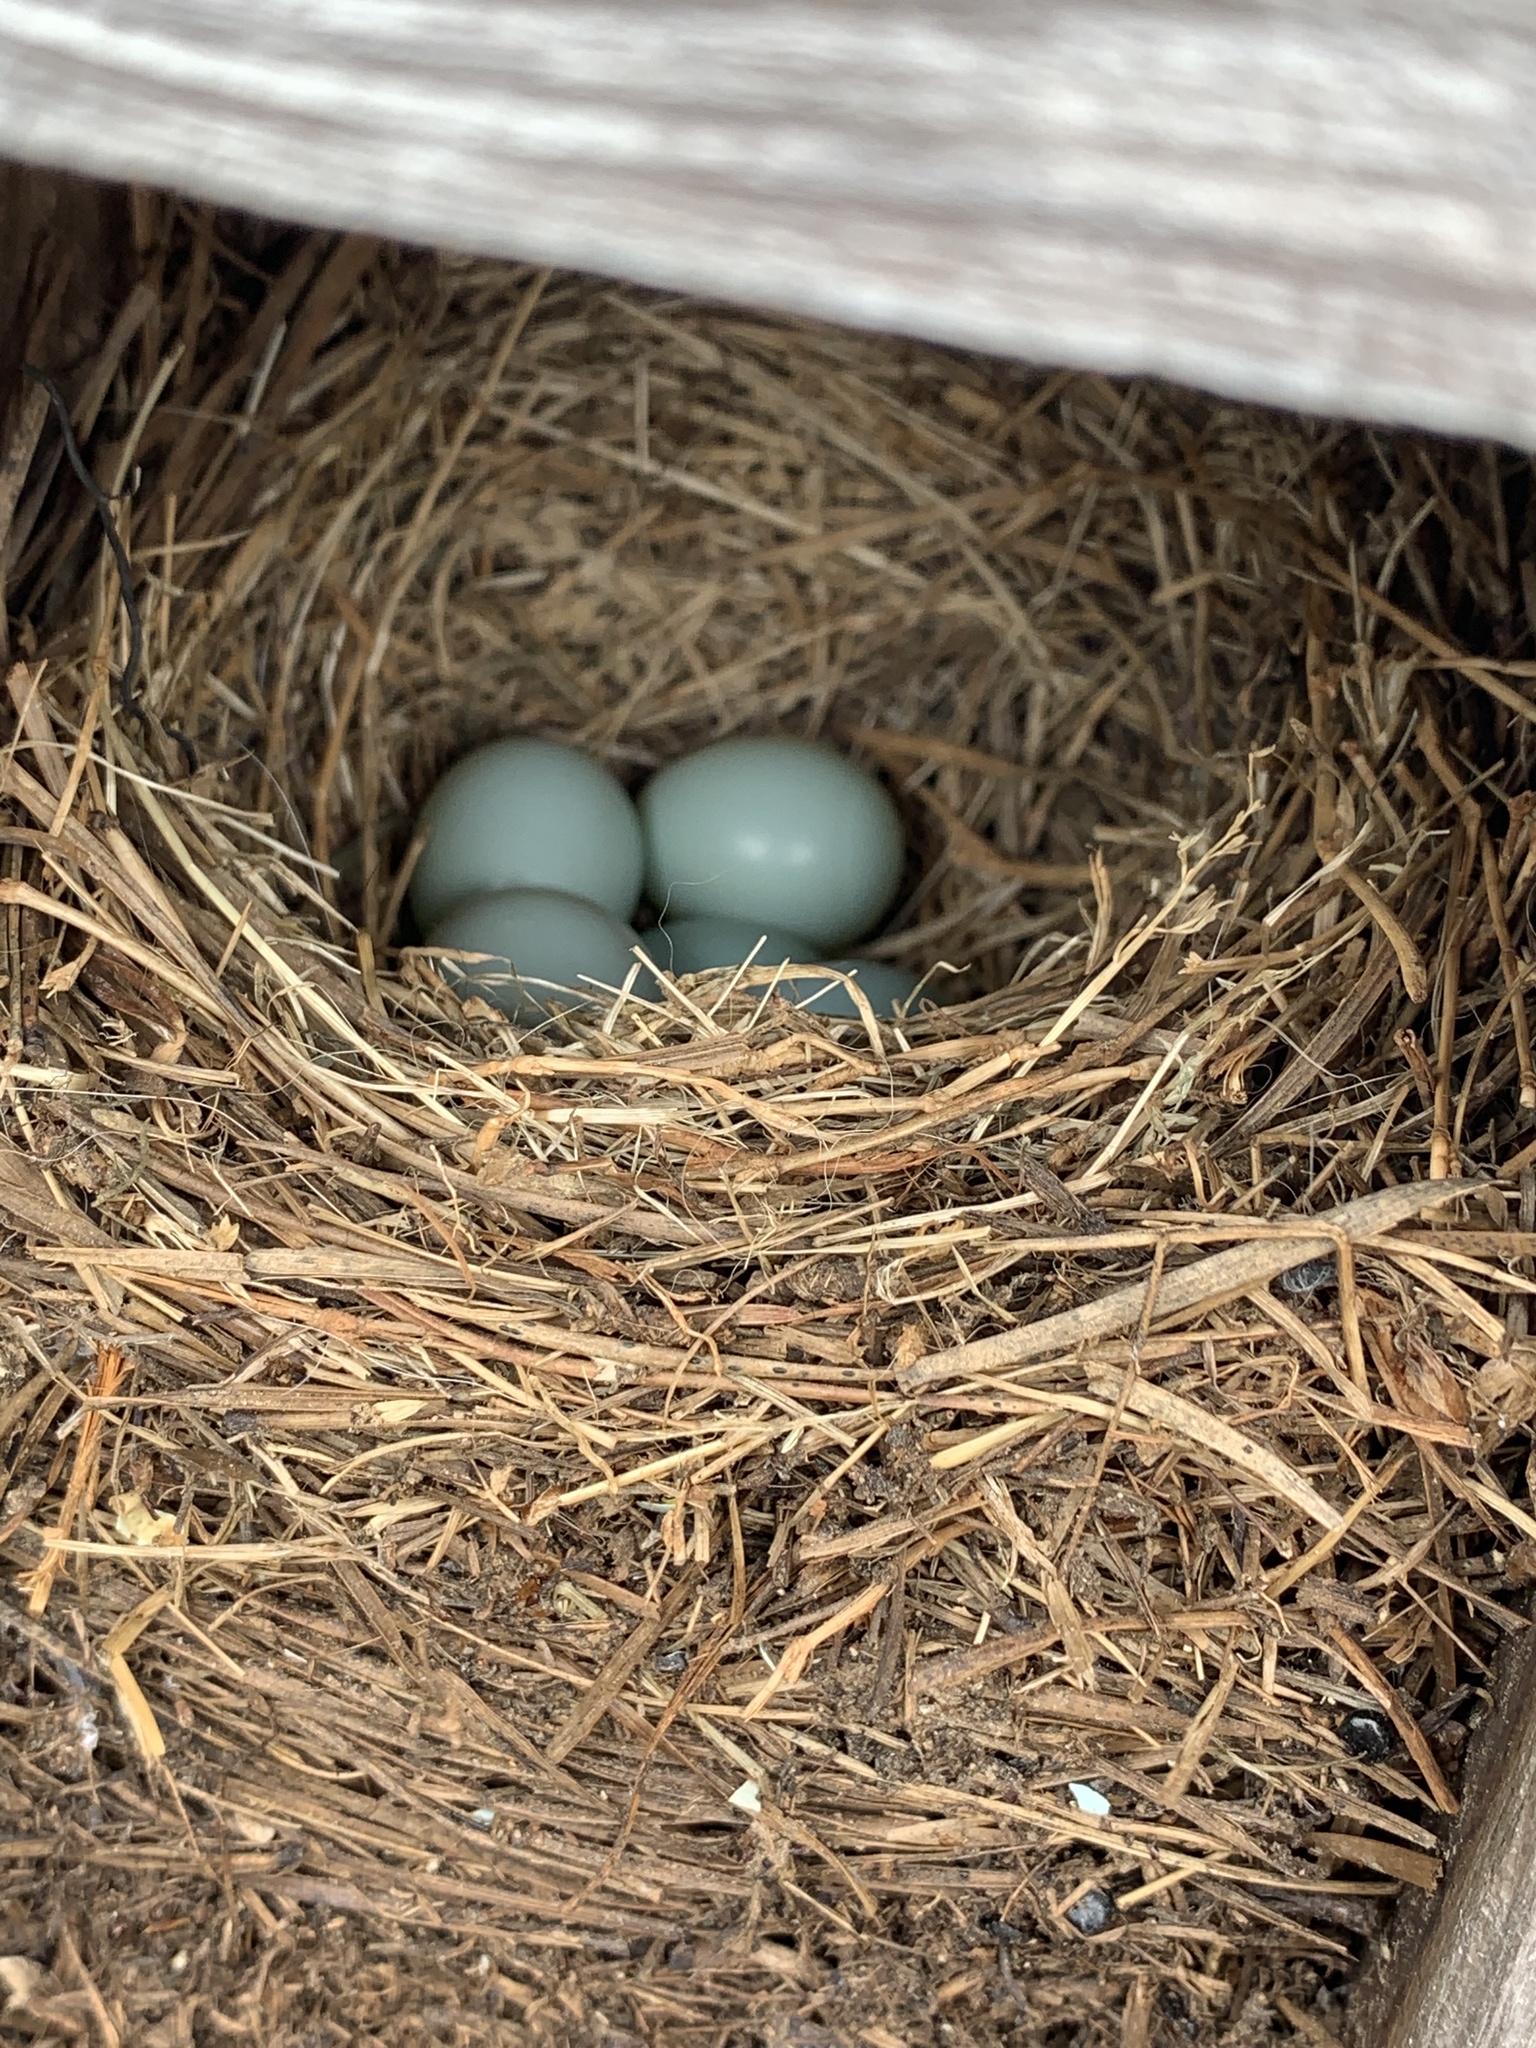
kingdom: Animalia
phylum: Chordata
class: Aves
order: Passeriformes
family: Turdidae
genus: Sialia
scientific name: Sialia sialis
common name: Eastern bluebird
